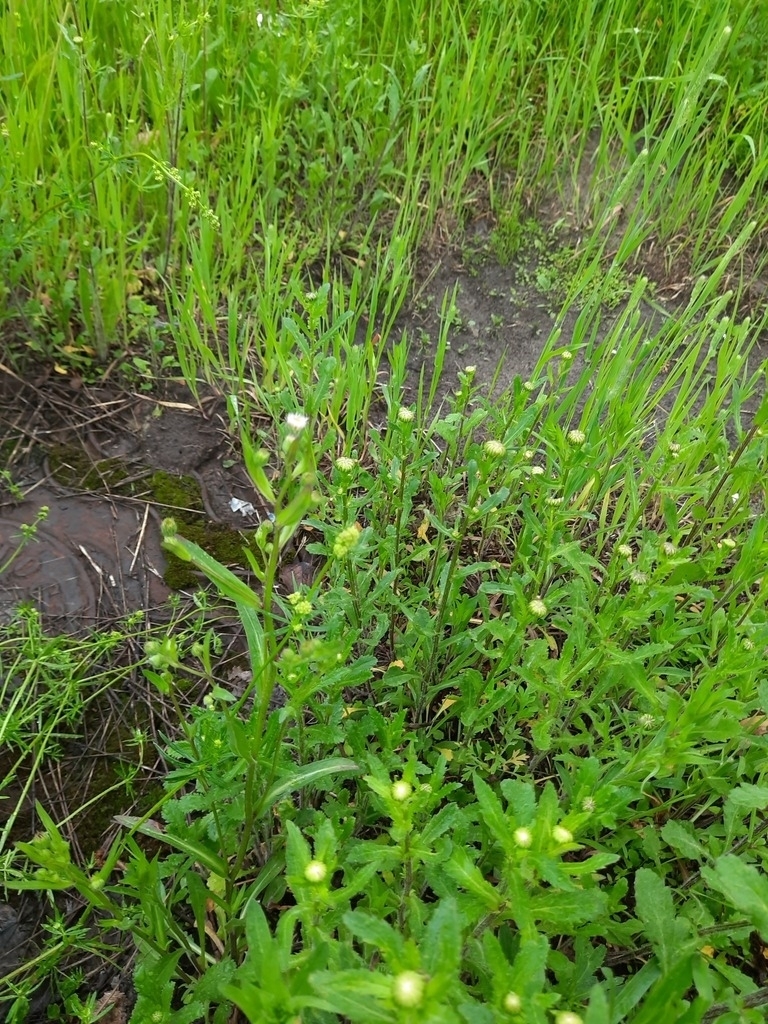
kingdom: Plantae
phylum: Tracheophyta
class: Magnoliopsida
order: Asterales
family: Asteraceae
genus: Leucanthemum
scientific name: Leucanthemum ircutianum
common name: Daisy
